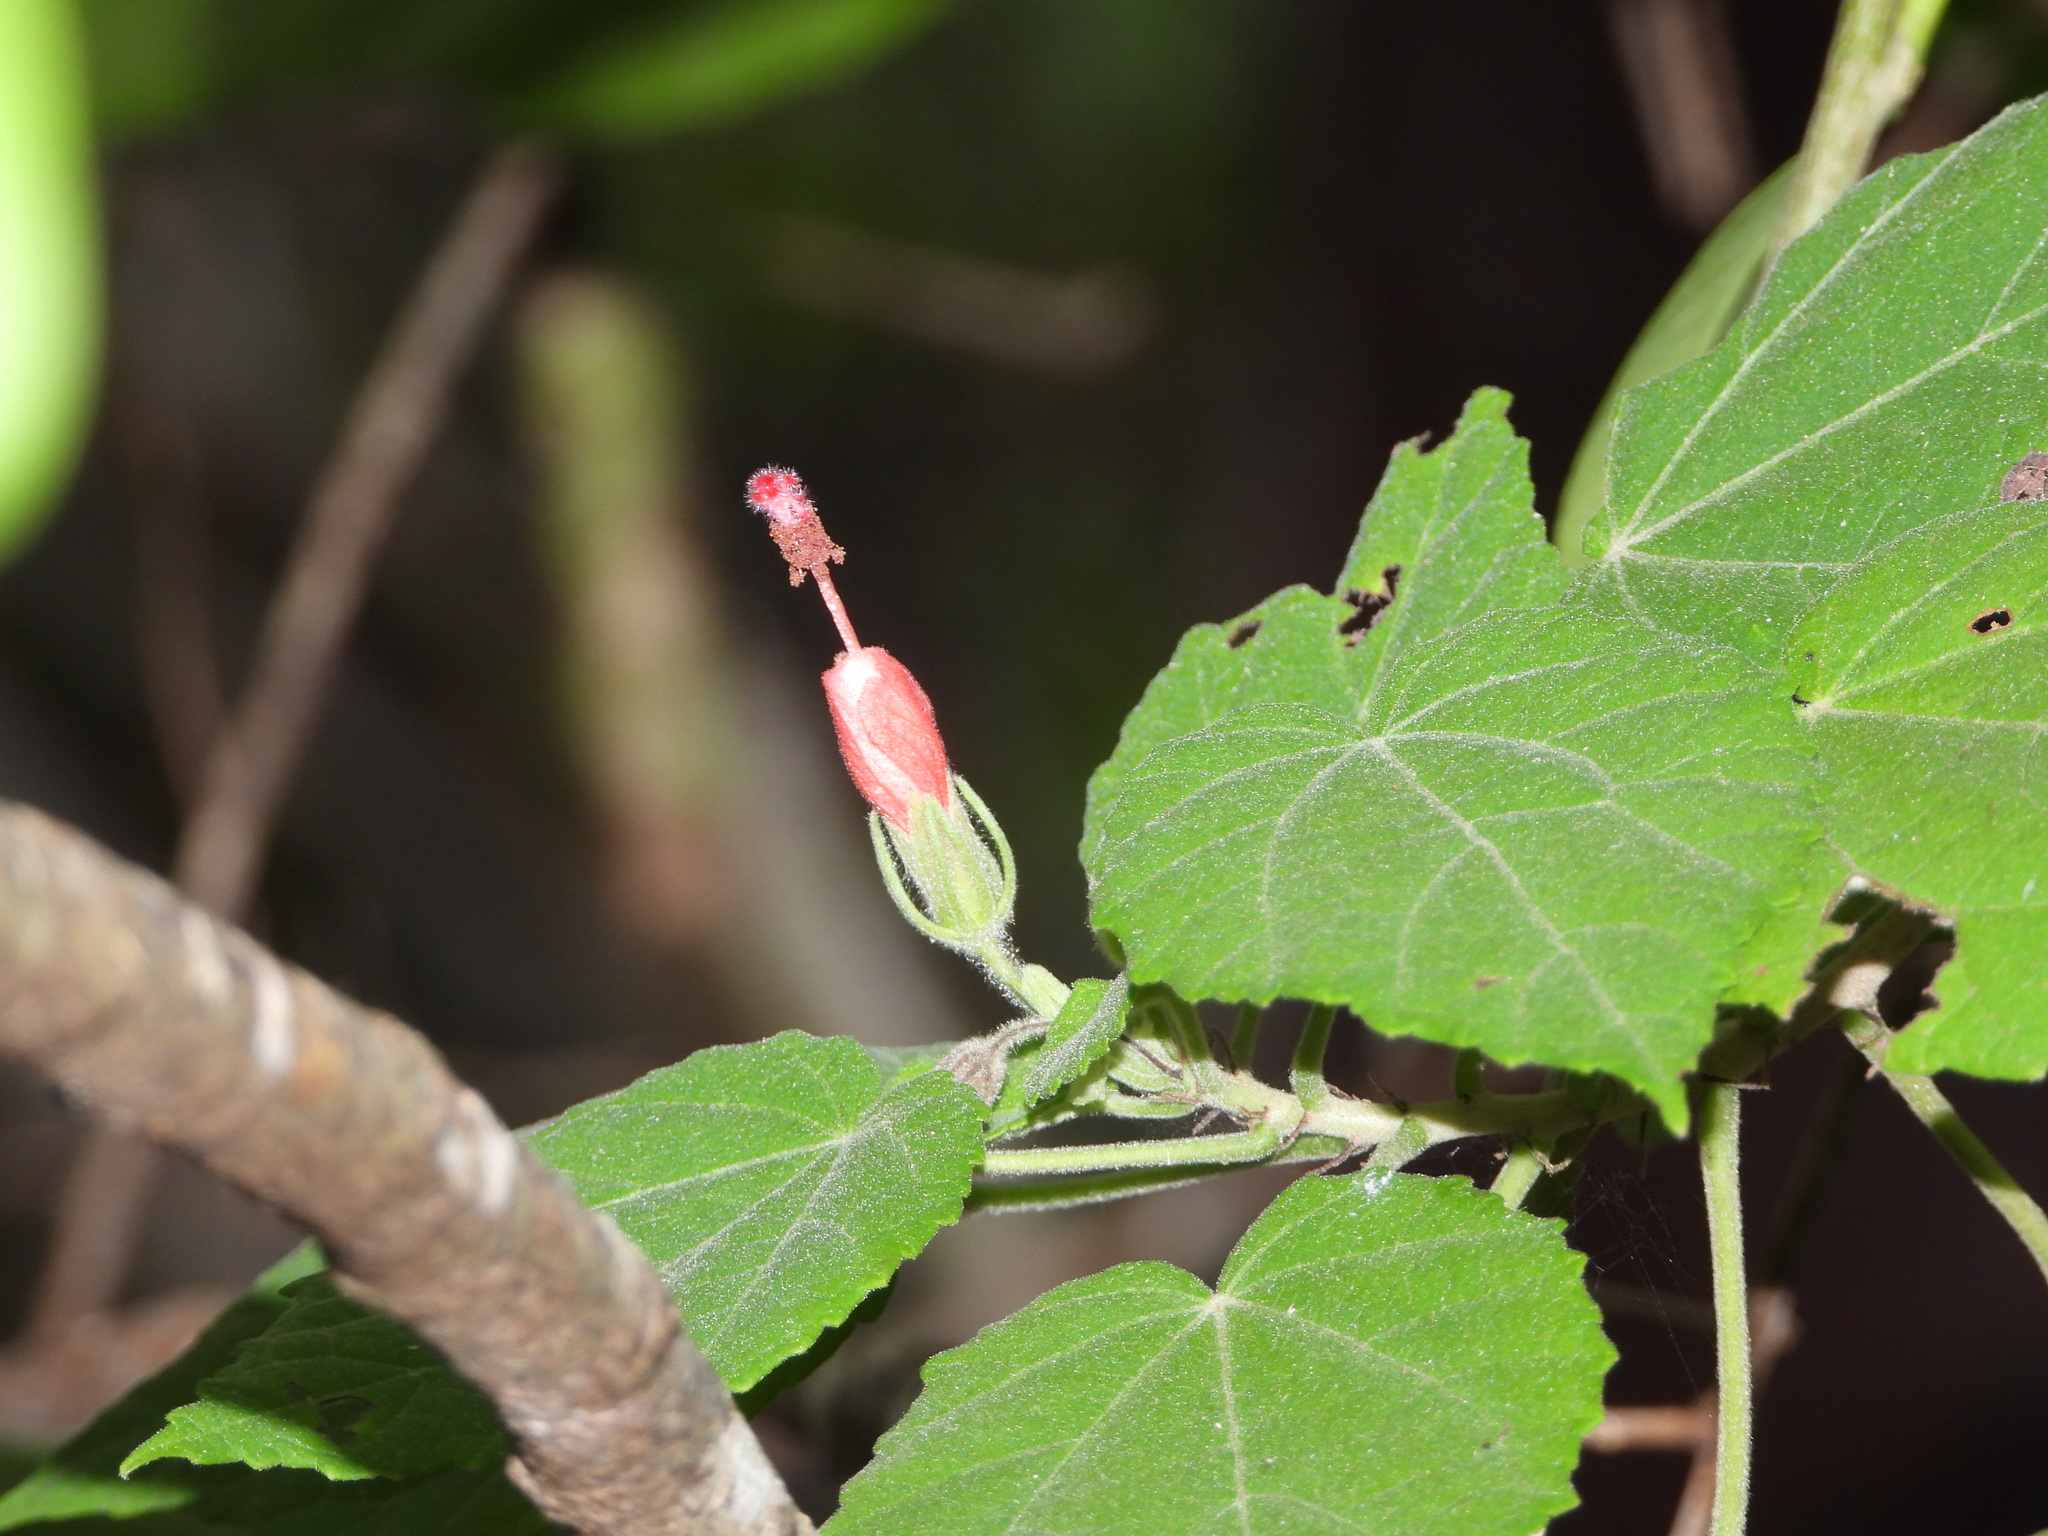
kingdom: Plantae
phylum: Tracheophyta
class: Magnoliopsida
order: Malvales
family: Malvaceae
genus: Malvaviscus
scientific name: Malvaviscus arboreus
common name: Wax mallow
